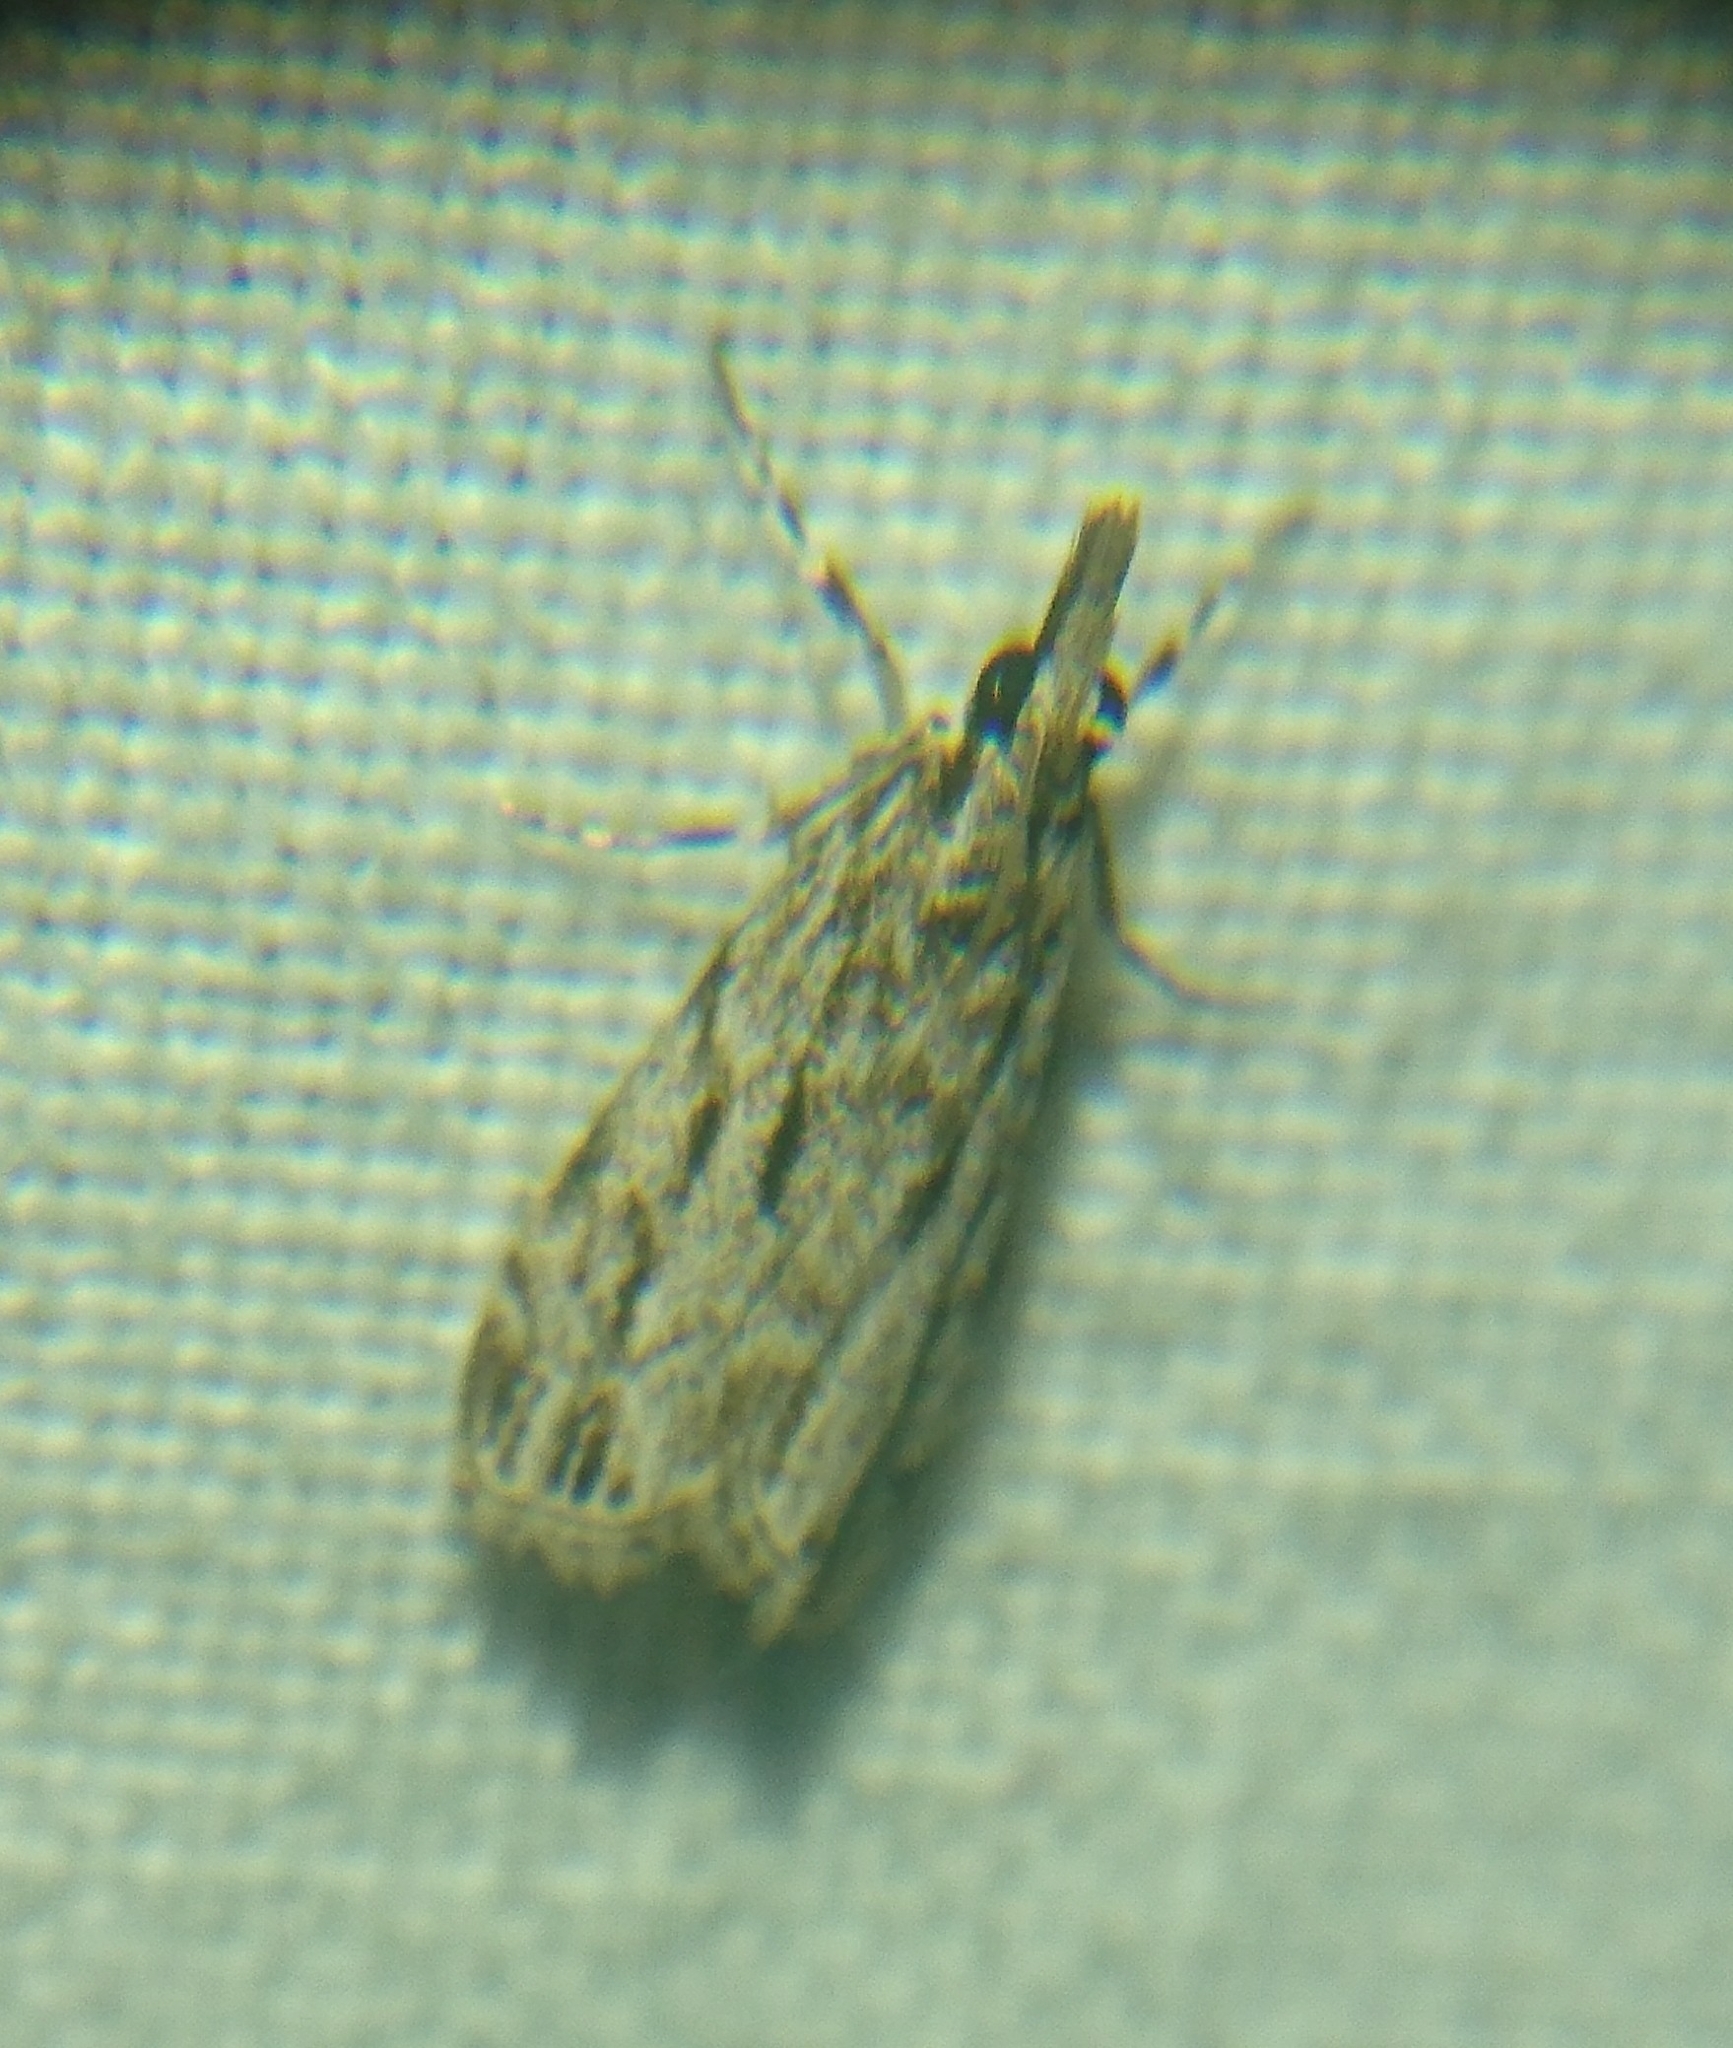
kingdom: Animalia
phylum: Arthropoda
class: Insecta
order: Lepidoptera
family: Crambidae
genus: Eudonia
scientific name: Eudonia strigalis
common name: Striped eudonia moth
